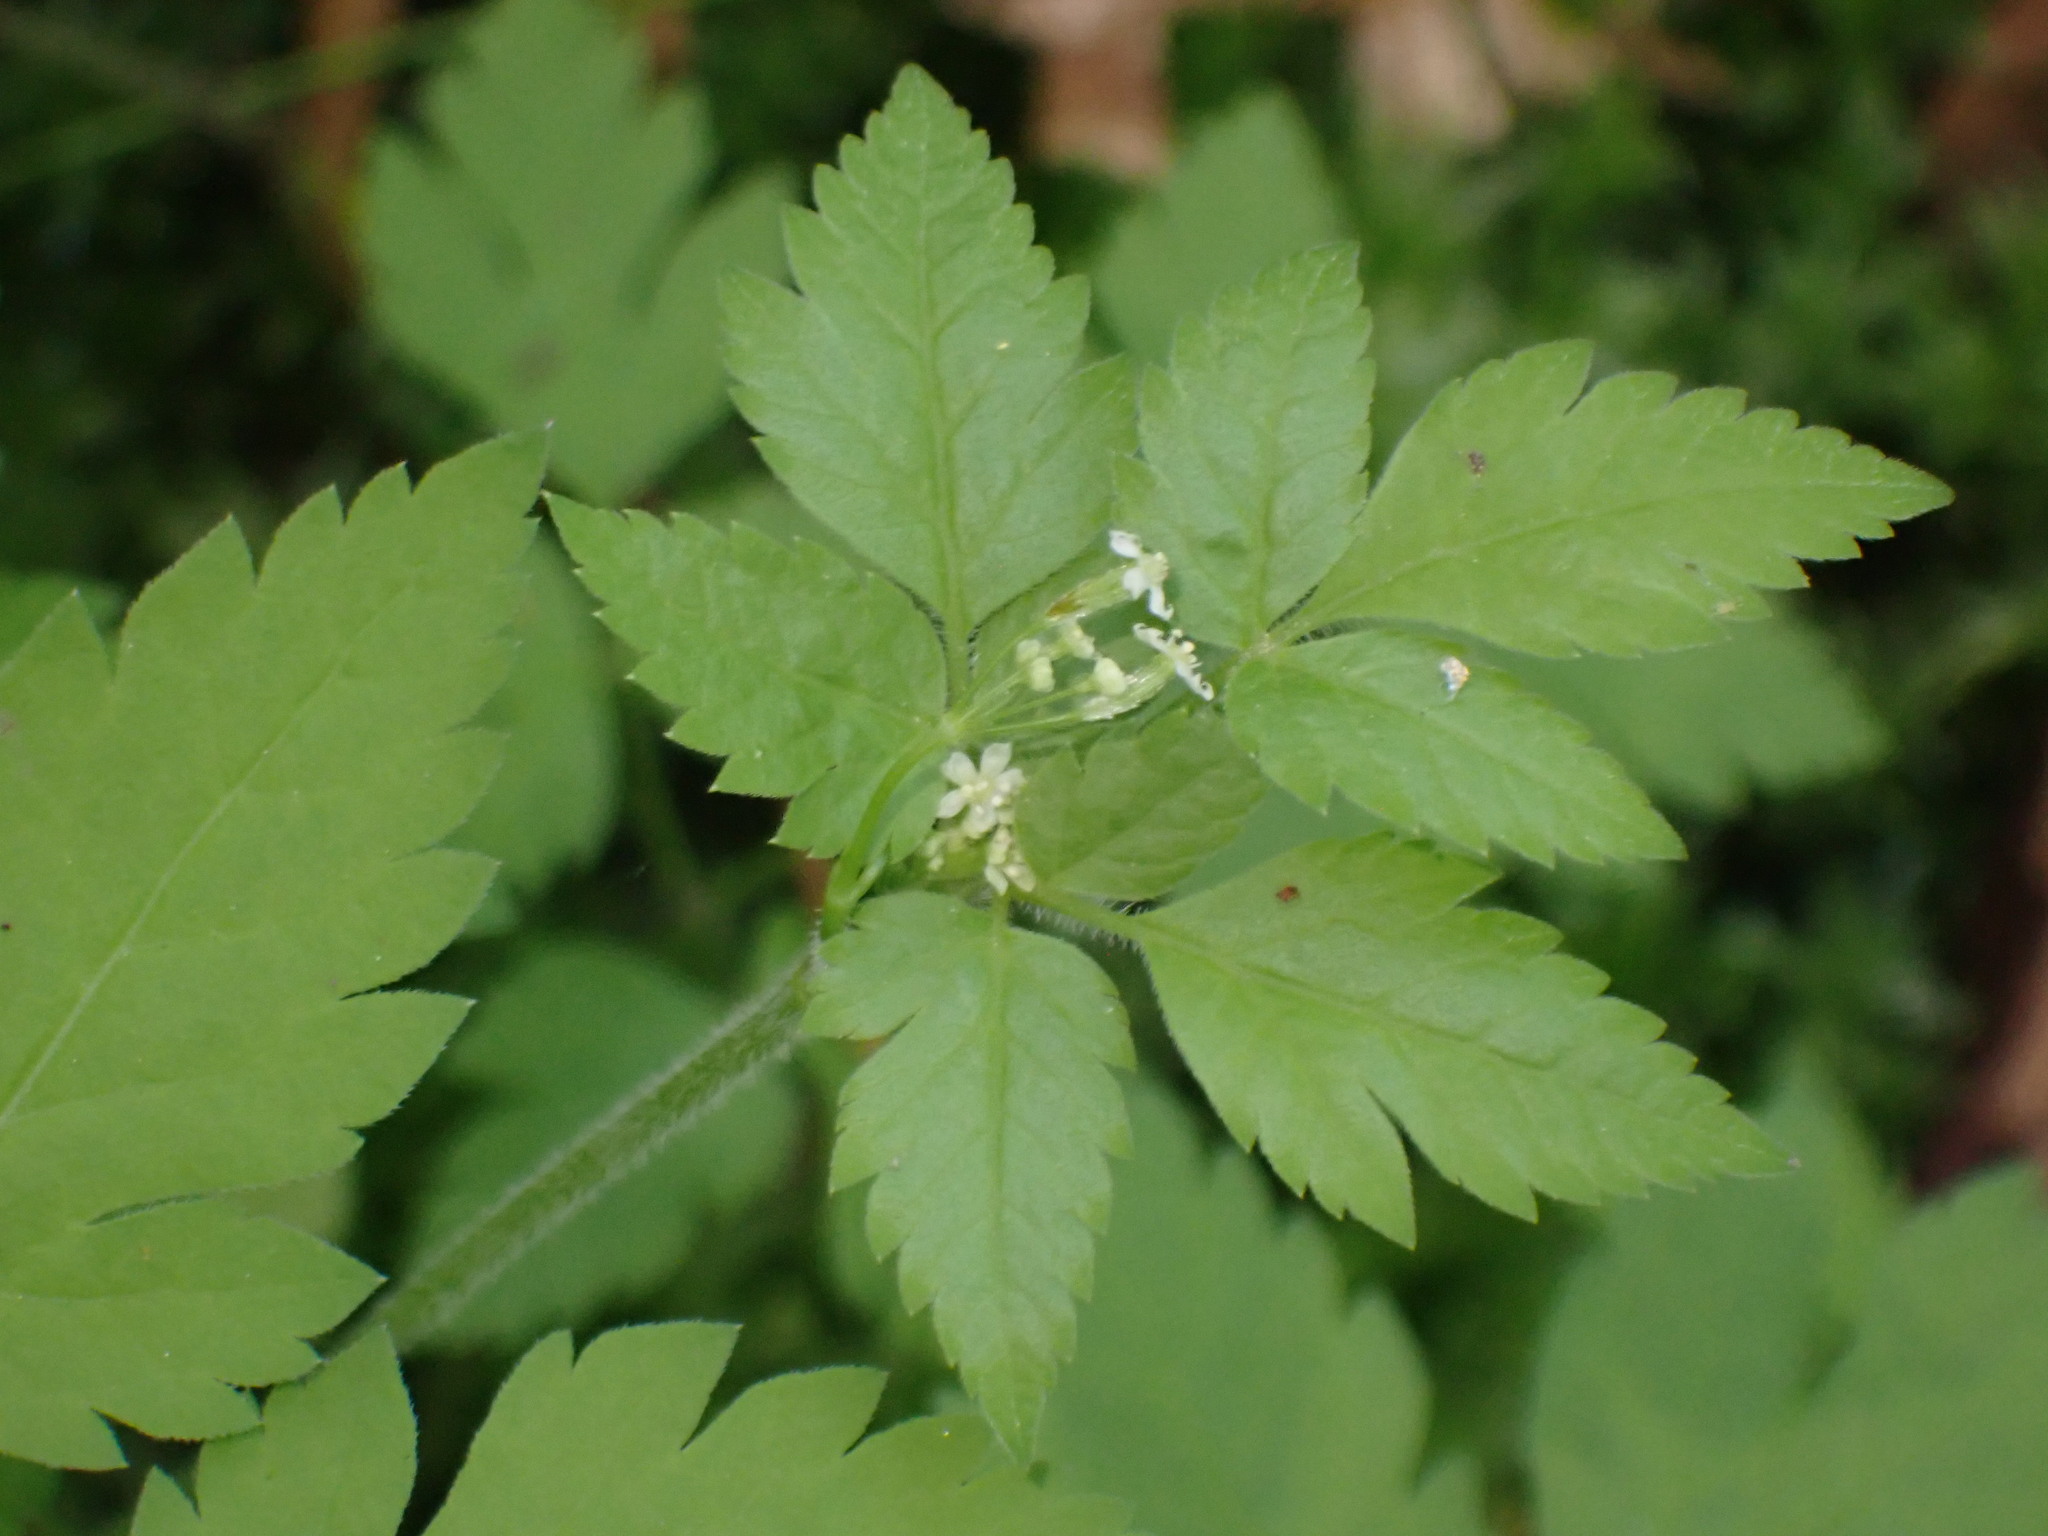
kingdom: Plantae
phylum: Tracheophyta
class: Magnoliopsida
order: Apiales
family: Apiaceae
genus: Osmorhiza
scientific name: Osmorhiza berteroi
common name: Mountain sweet cicely
